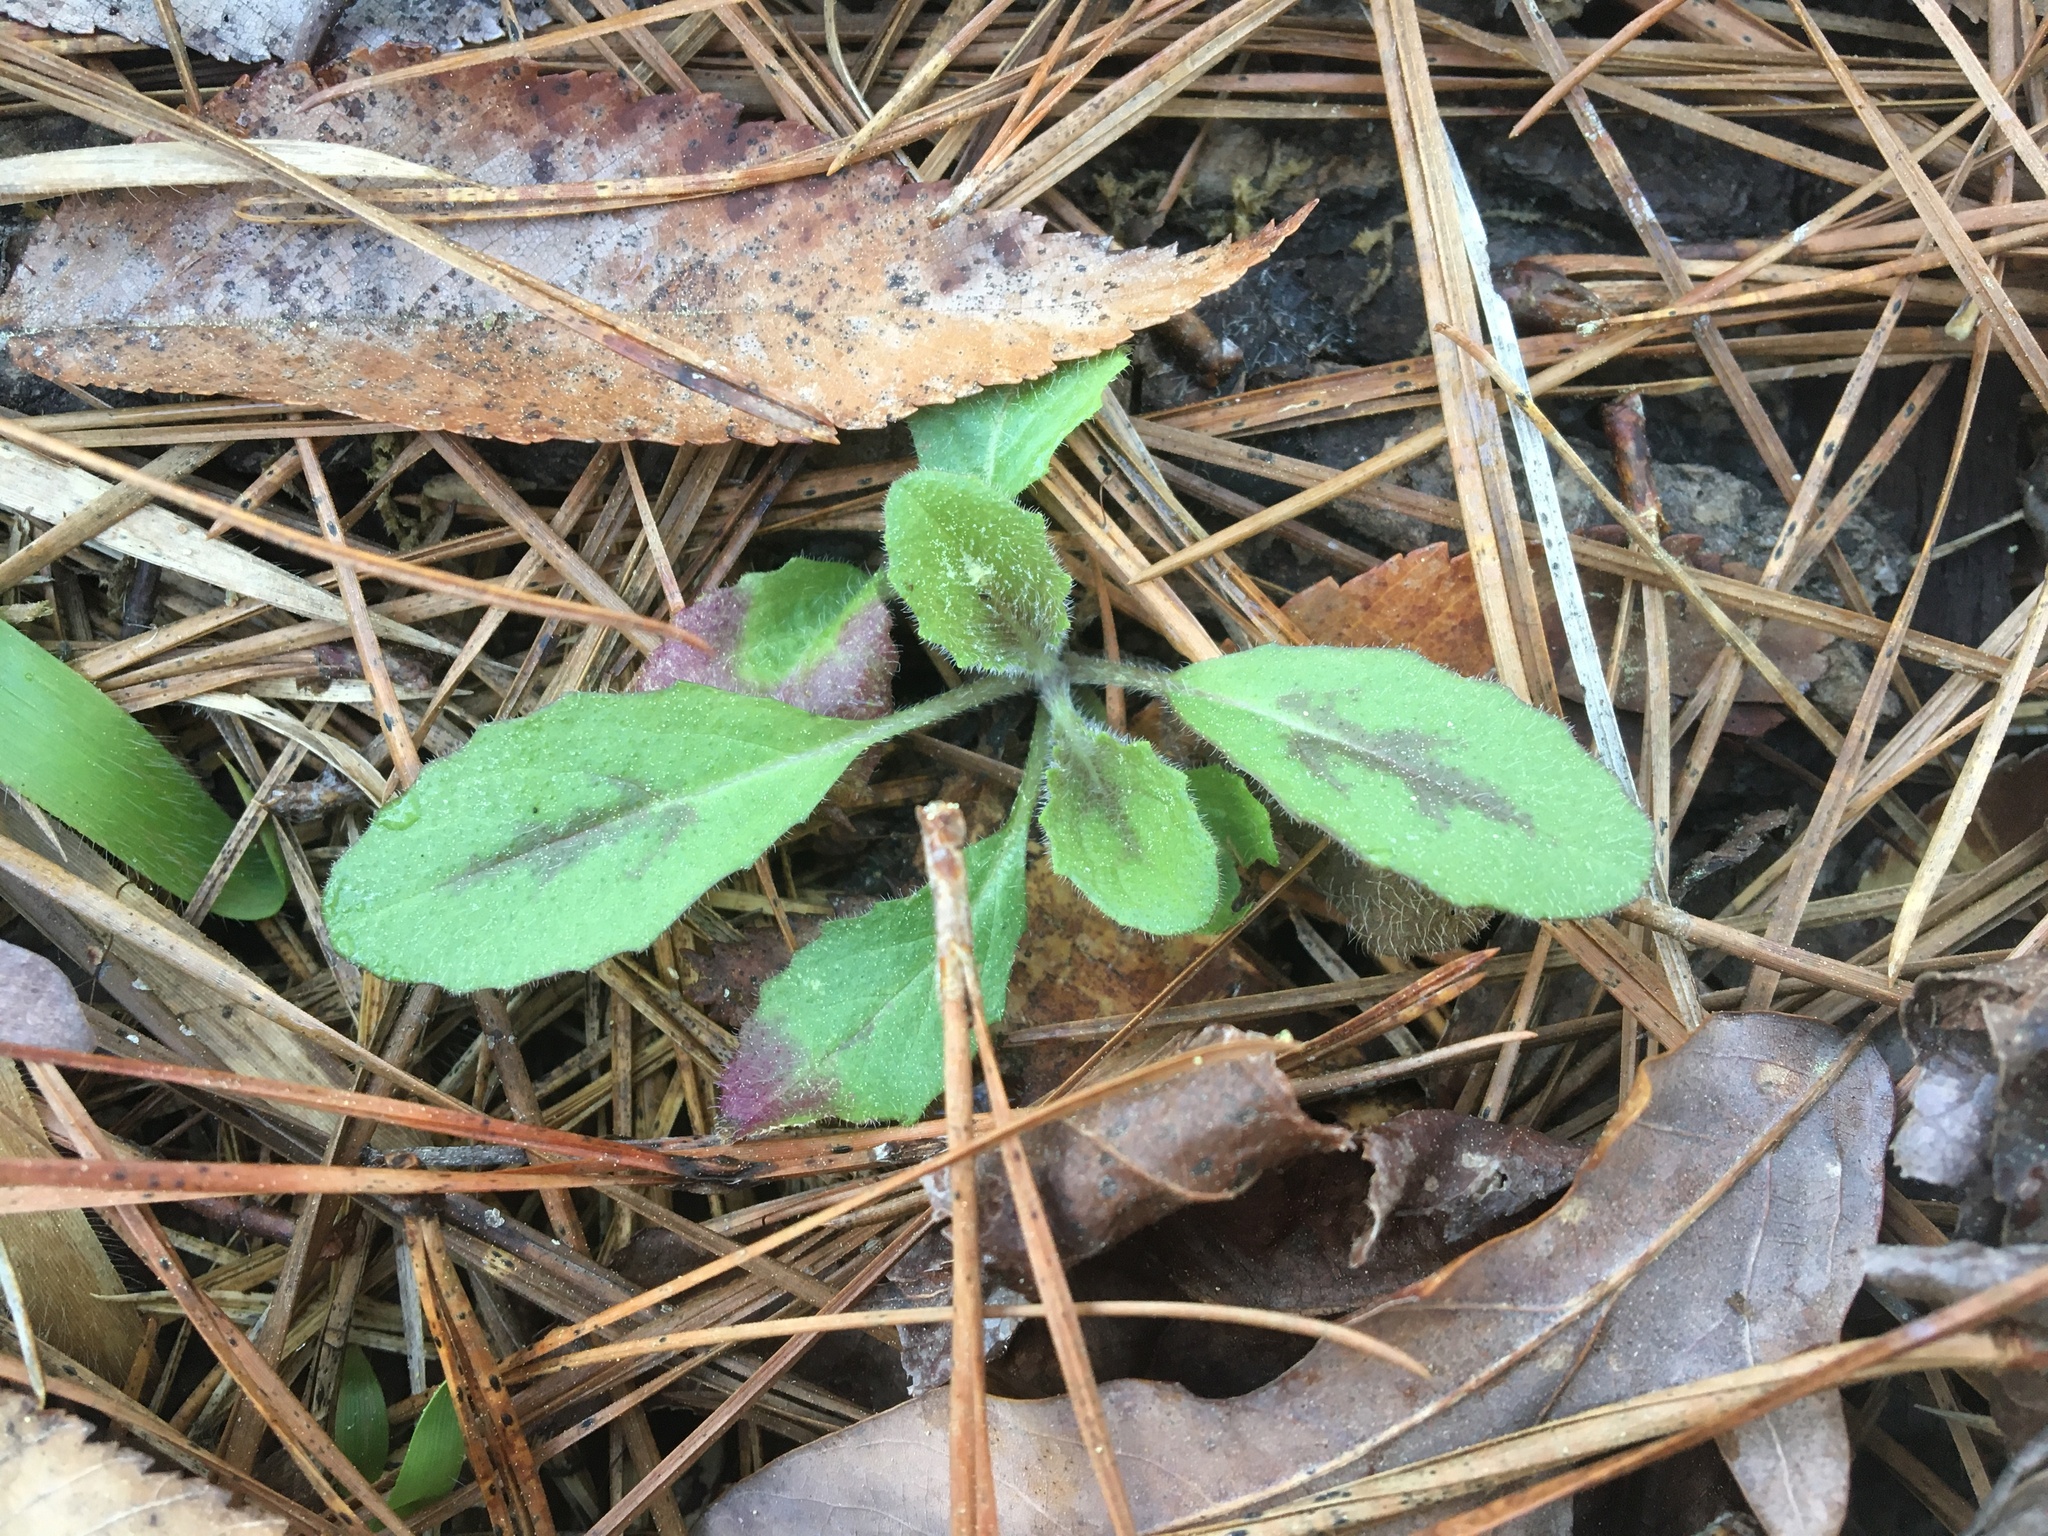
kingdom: Plantae
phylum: Tracheophyta
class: Magnoliopsida
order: Lamiales
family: Lamiaceae
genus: Salvia
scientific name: Salvia lyrata
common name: Cancerweed
